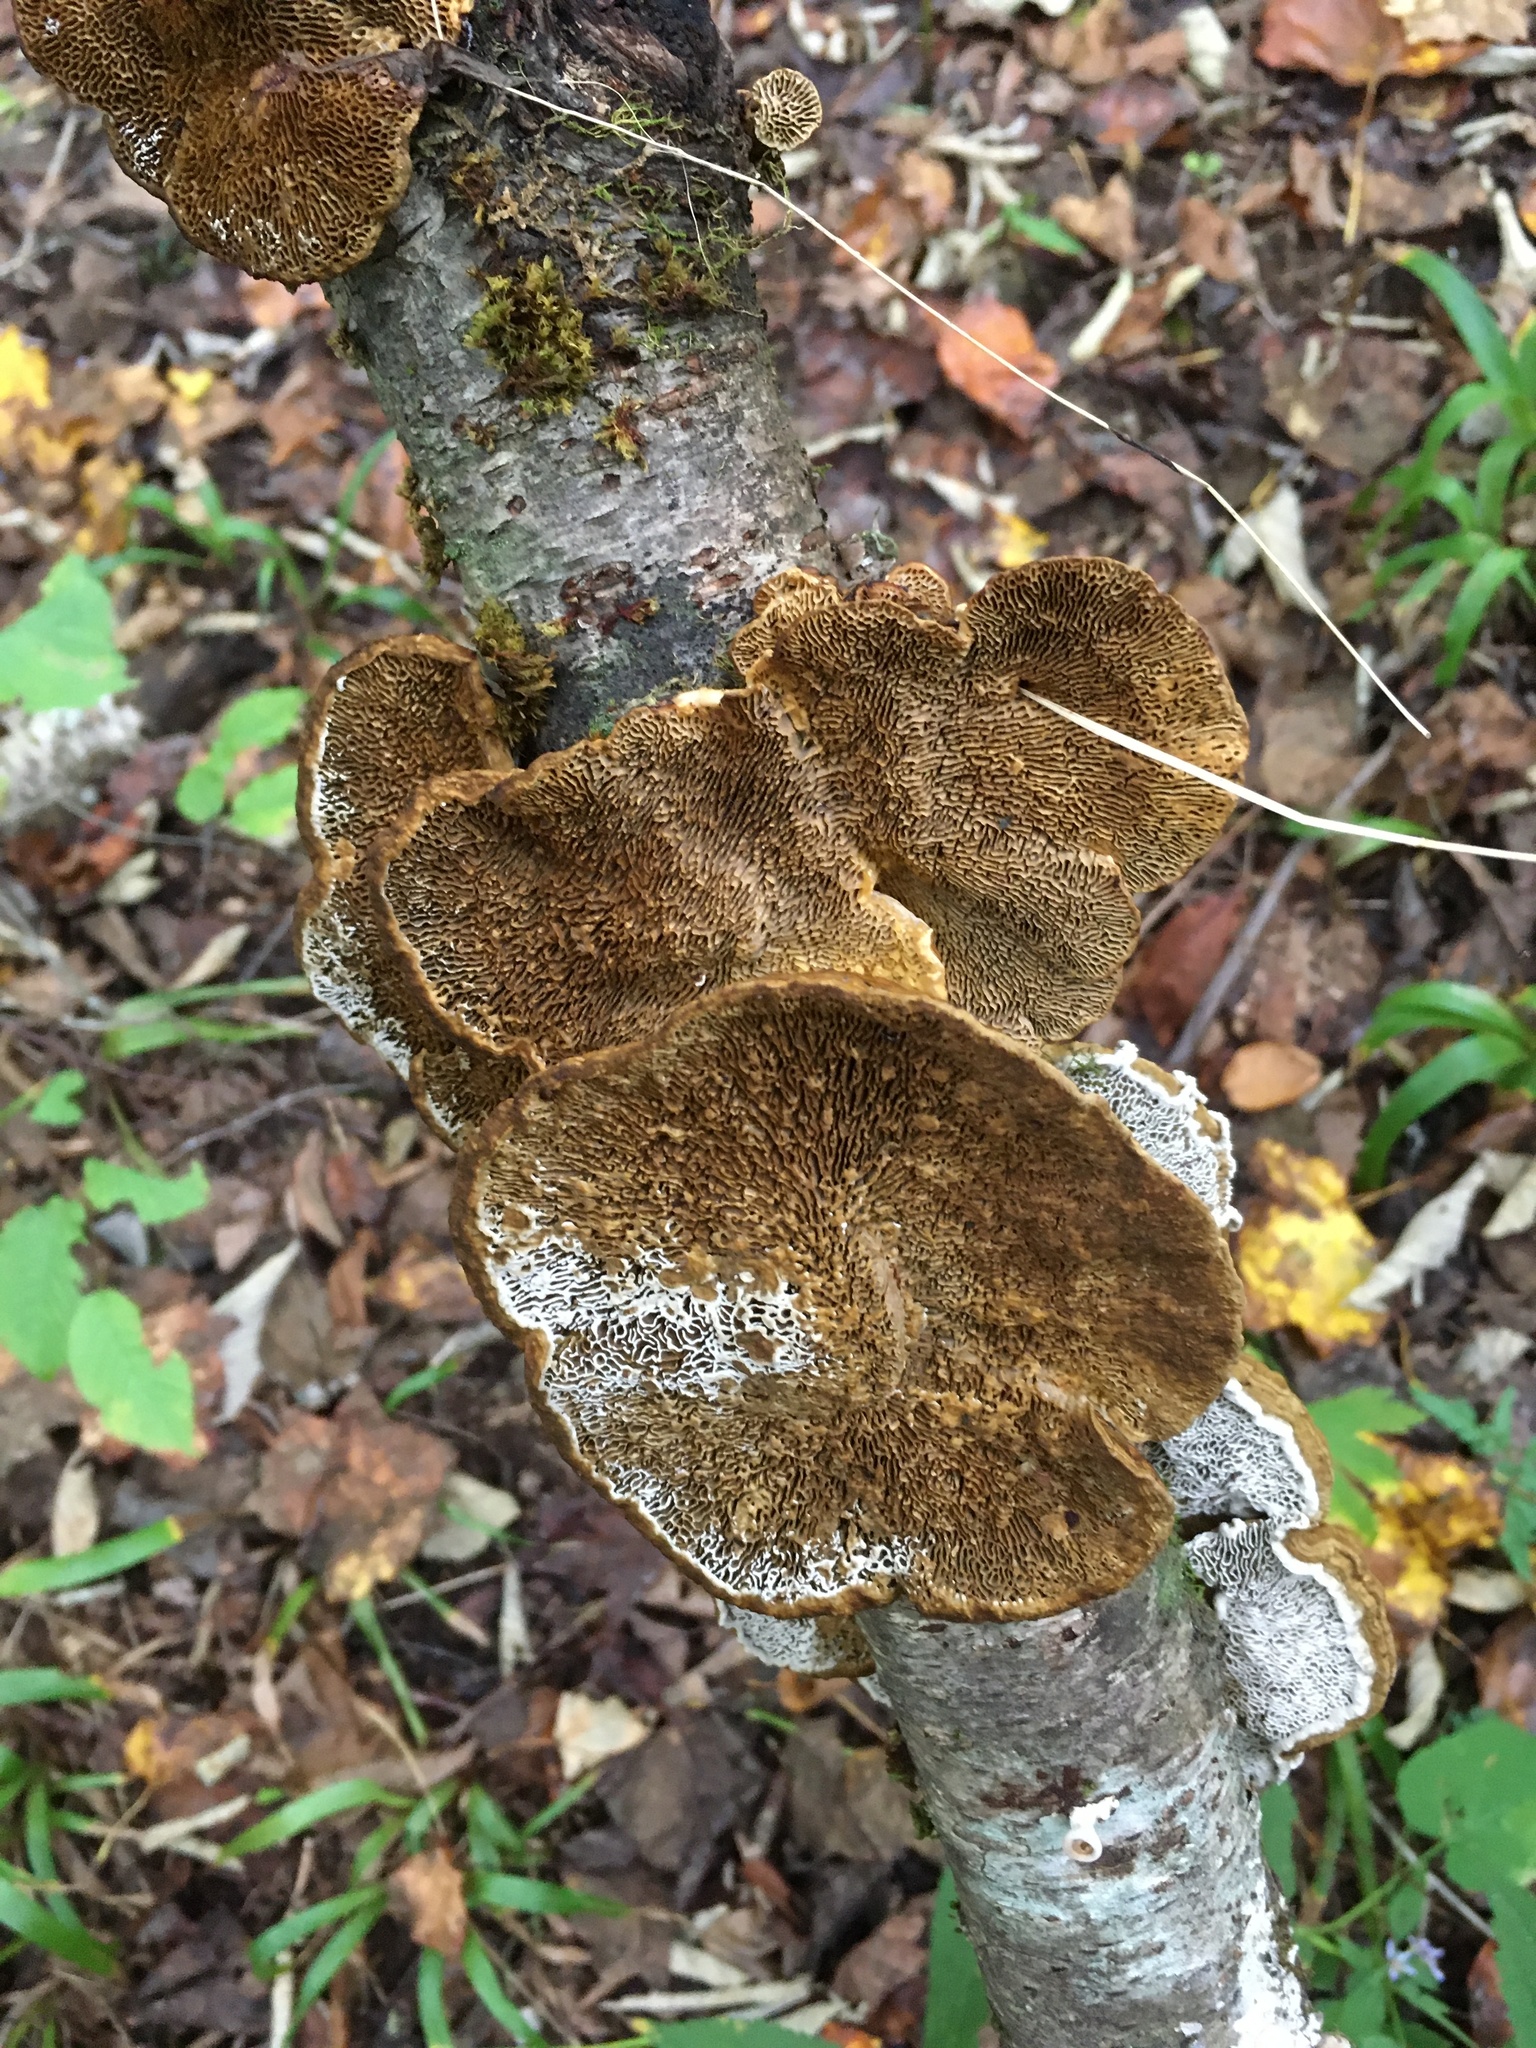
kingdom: Fungi
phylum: Basidiomycota
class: Agaricomycetes
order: Polyporales
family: Polyporaceae
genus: Daedaleopsis
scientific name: Daedaleopsis confragosa
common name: Blushing bracket
